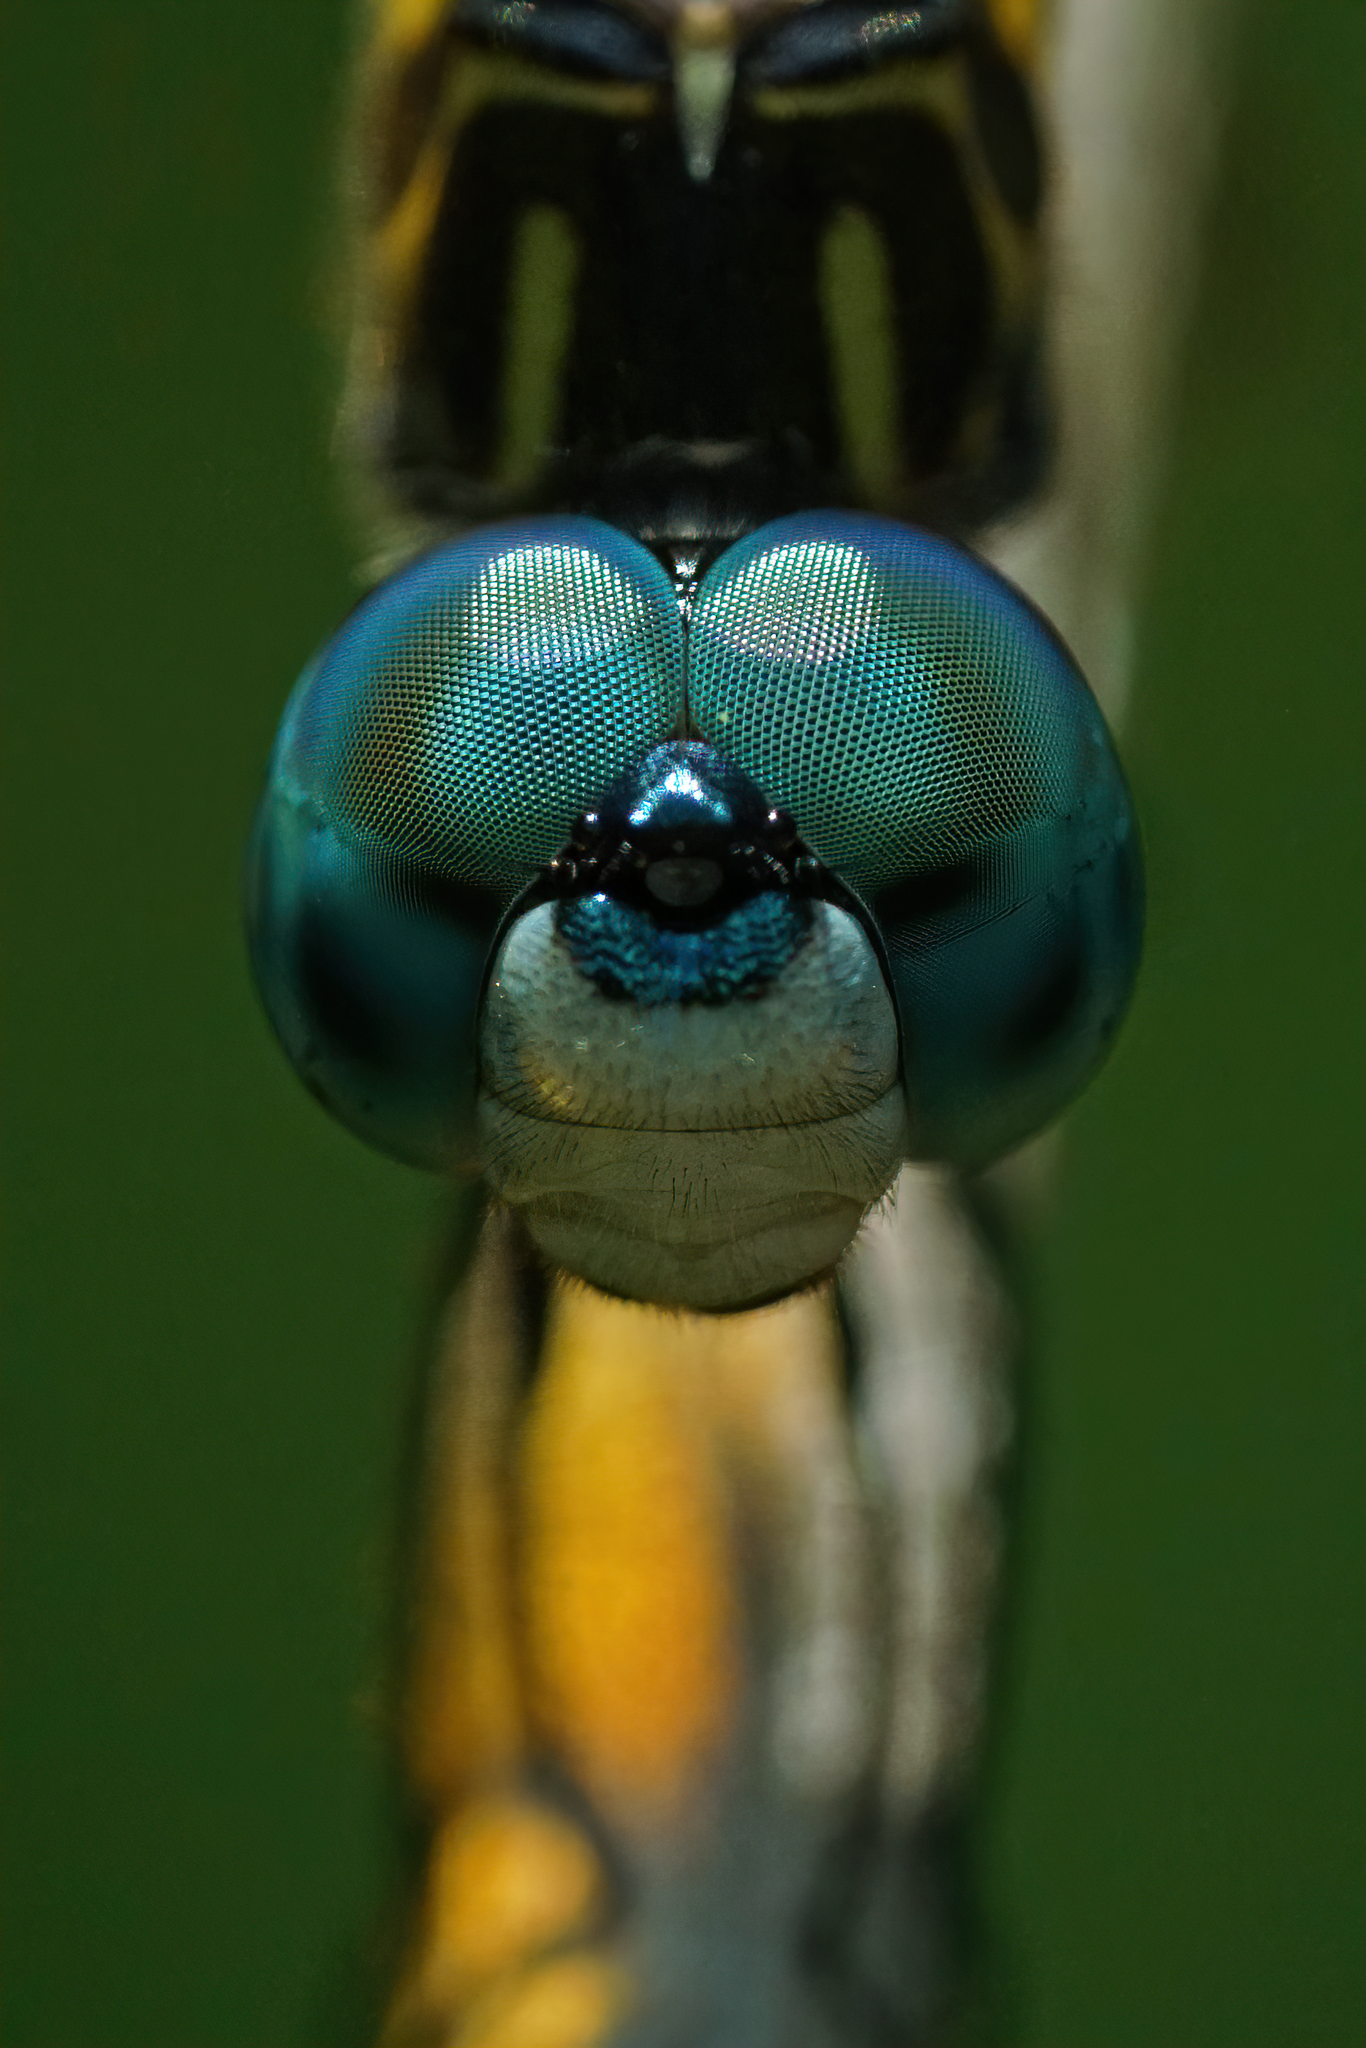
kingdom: Animalia
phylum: Arthropoda
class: Insecta
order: Odonata
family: Libellulidae
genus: Pachydiplax
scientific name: Pachydiplax longipennis
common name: Blue dasher
